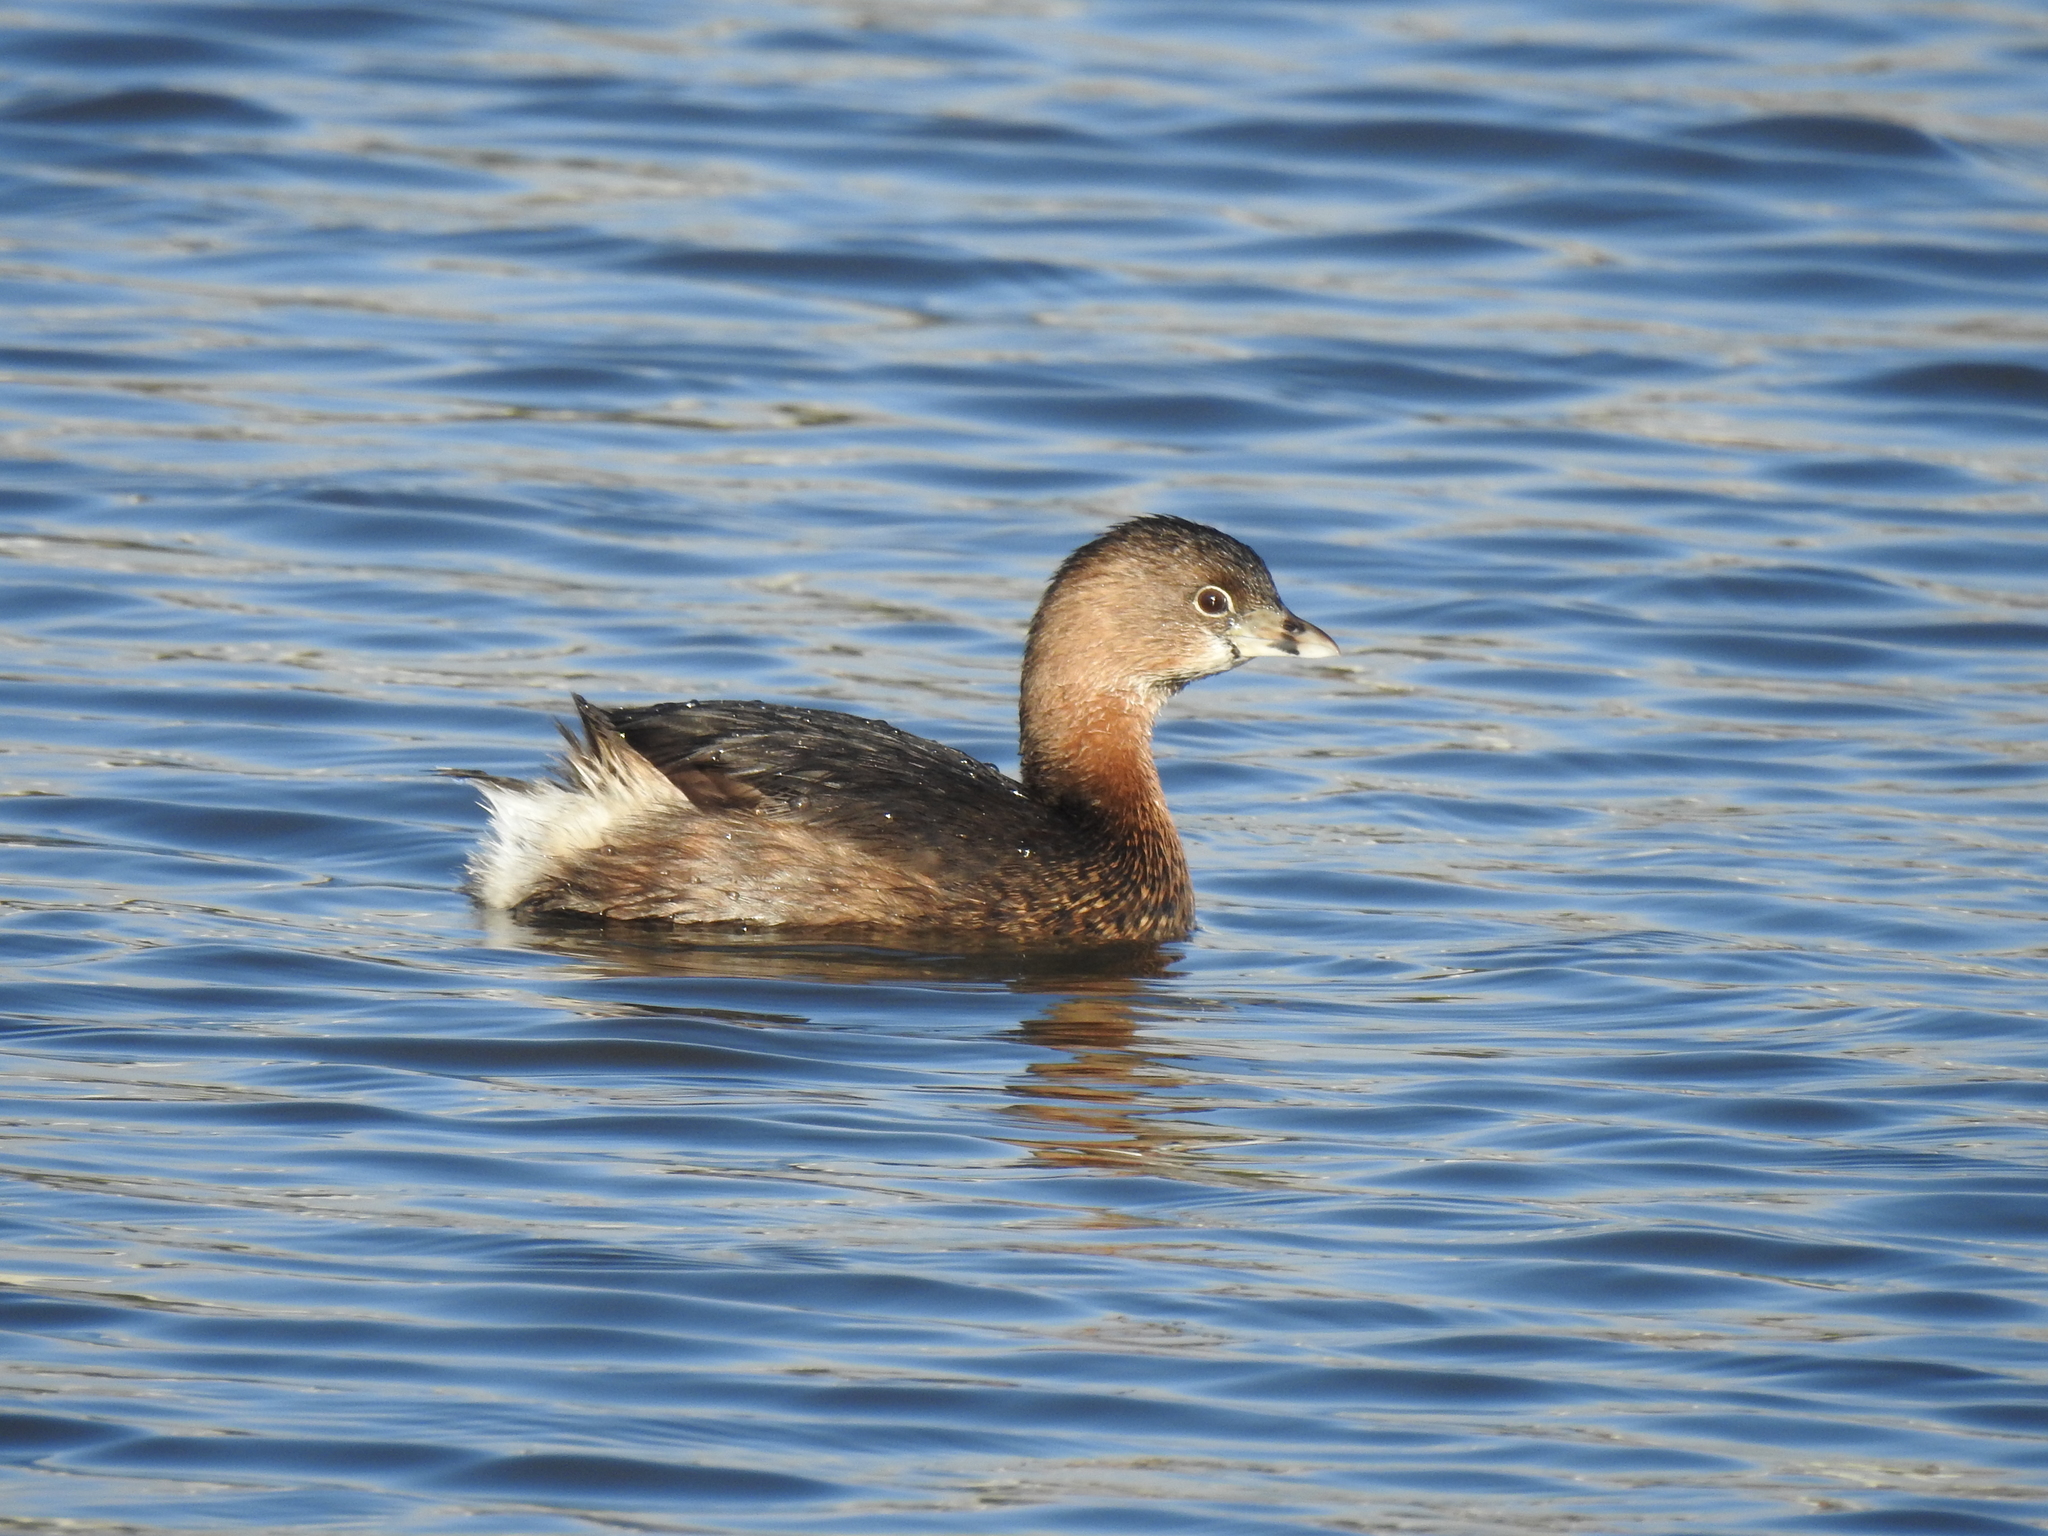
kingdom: Animalia
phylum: Chordata
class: Aves
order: Podicipediformes
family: Podicipedidae
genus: Podilymbus
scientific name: Podilymbus podiceps
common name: Pied-billed grebe
